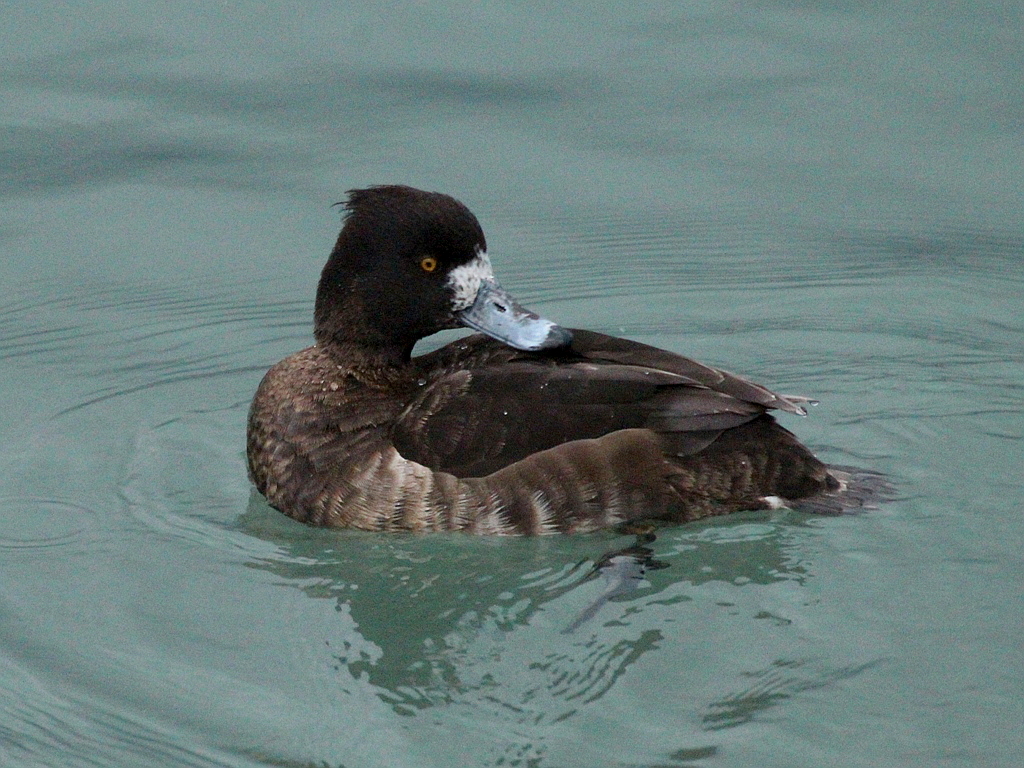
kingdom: Animalia
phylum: Chordata
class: Aves
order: Anseriformes
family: Anatidae
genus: Aythya
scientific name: Aythya fuligula
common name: Tufted duck
